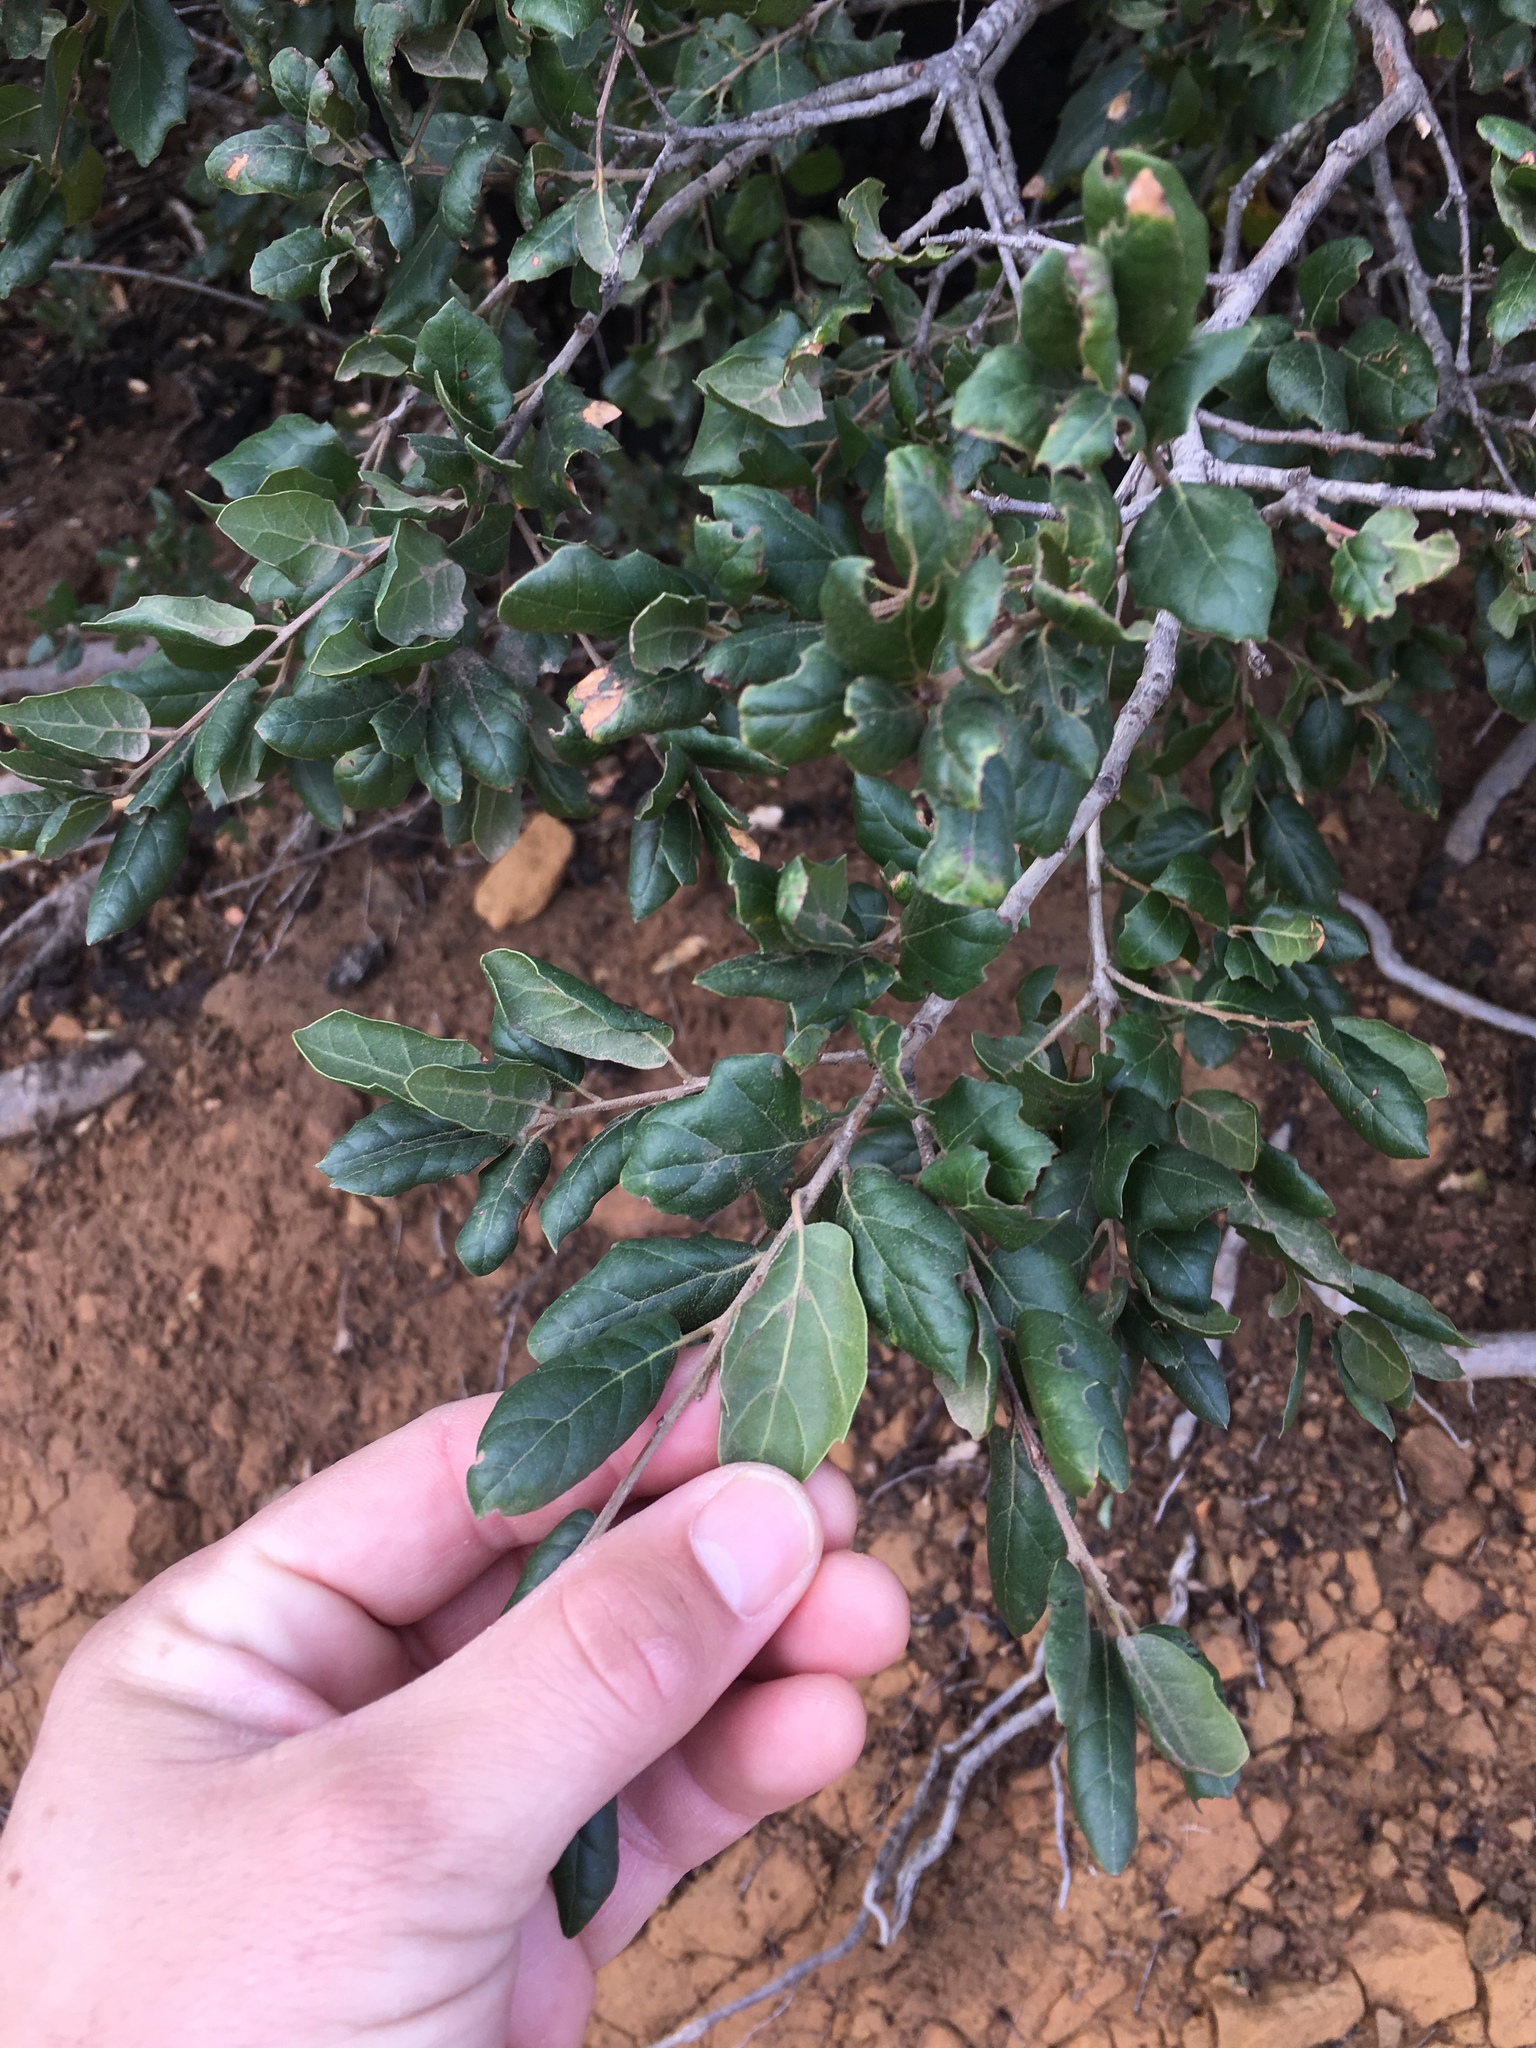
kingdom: Plantae
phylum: Tracheophyta
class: Magnoliopsida
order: Fagales
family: Fagaceae
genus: Quercus
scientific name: Quercus agrifolia
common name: California live oak
